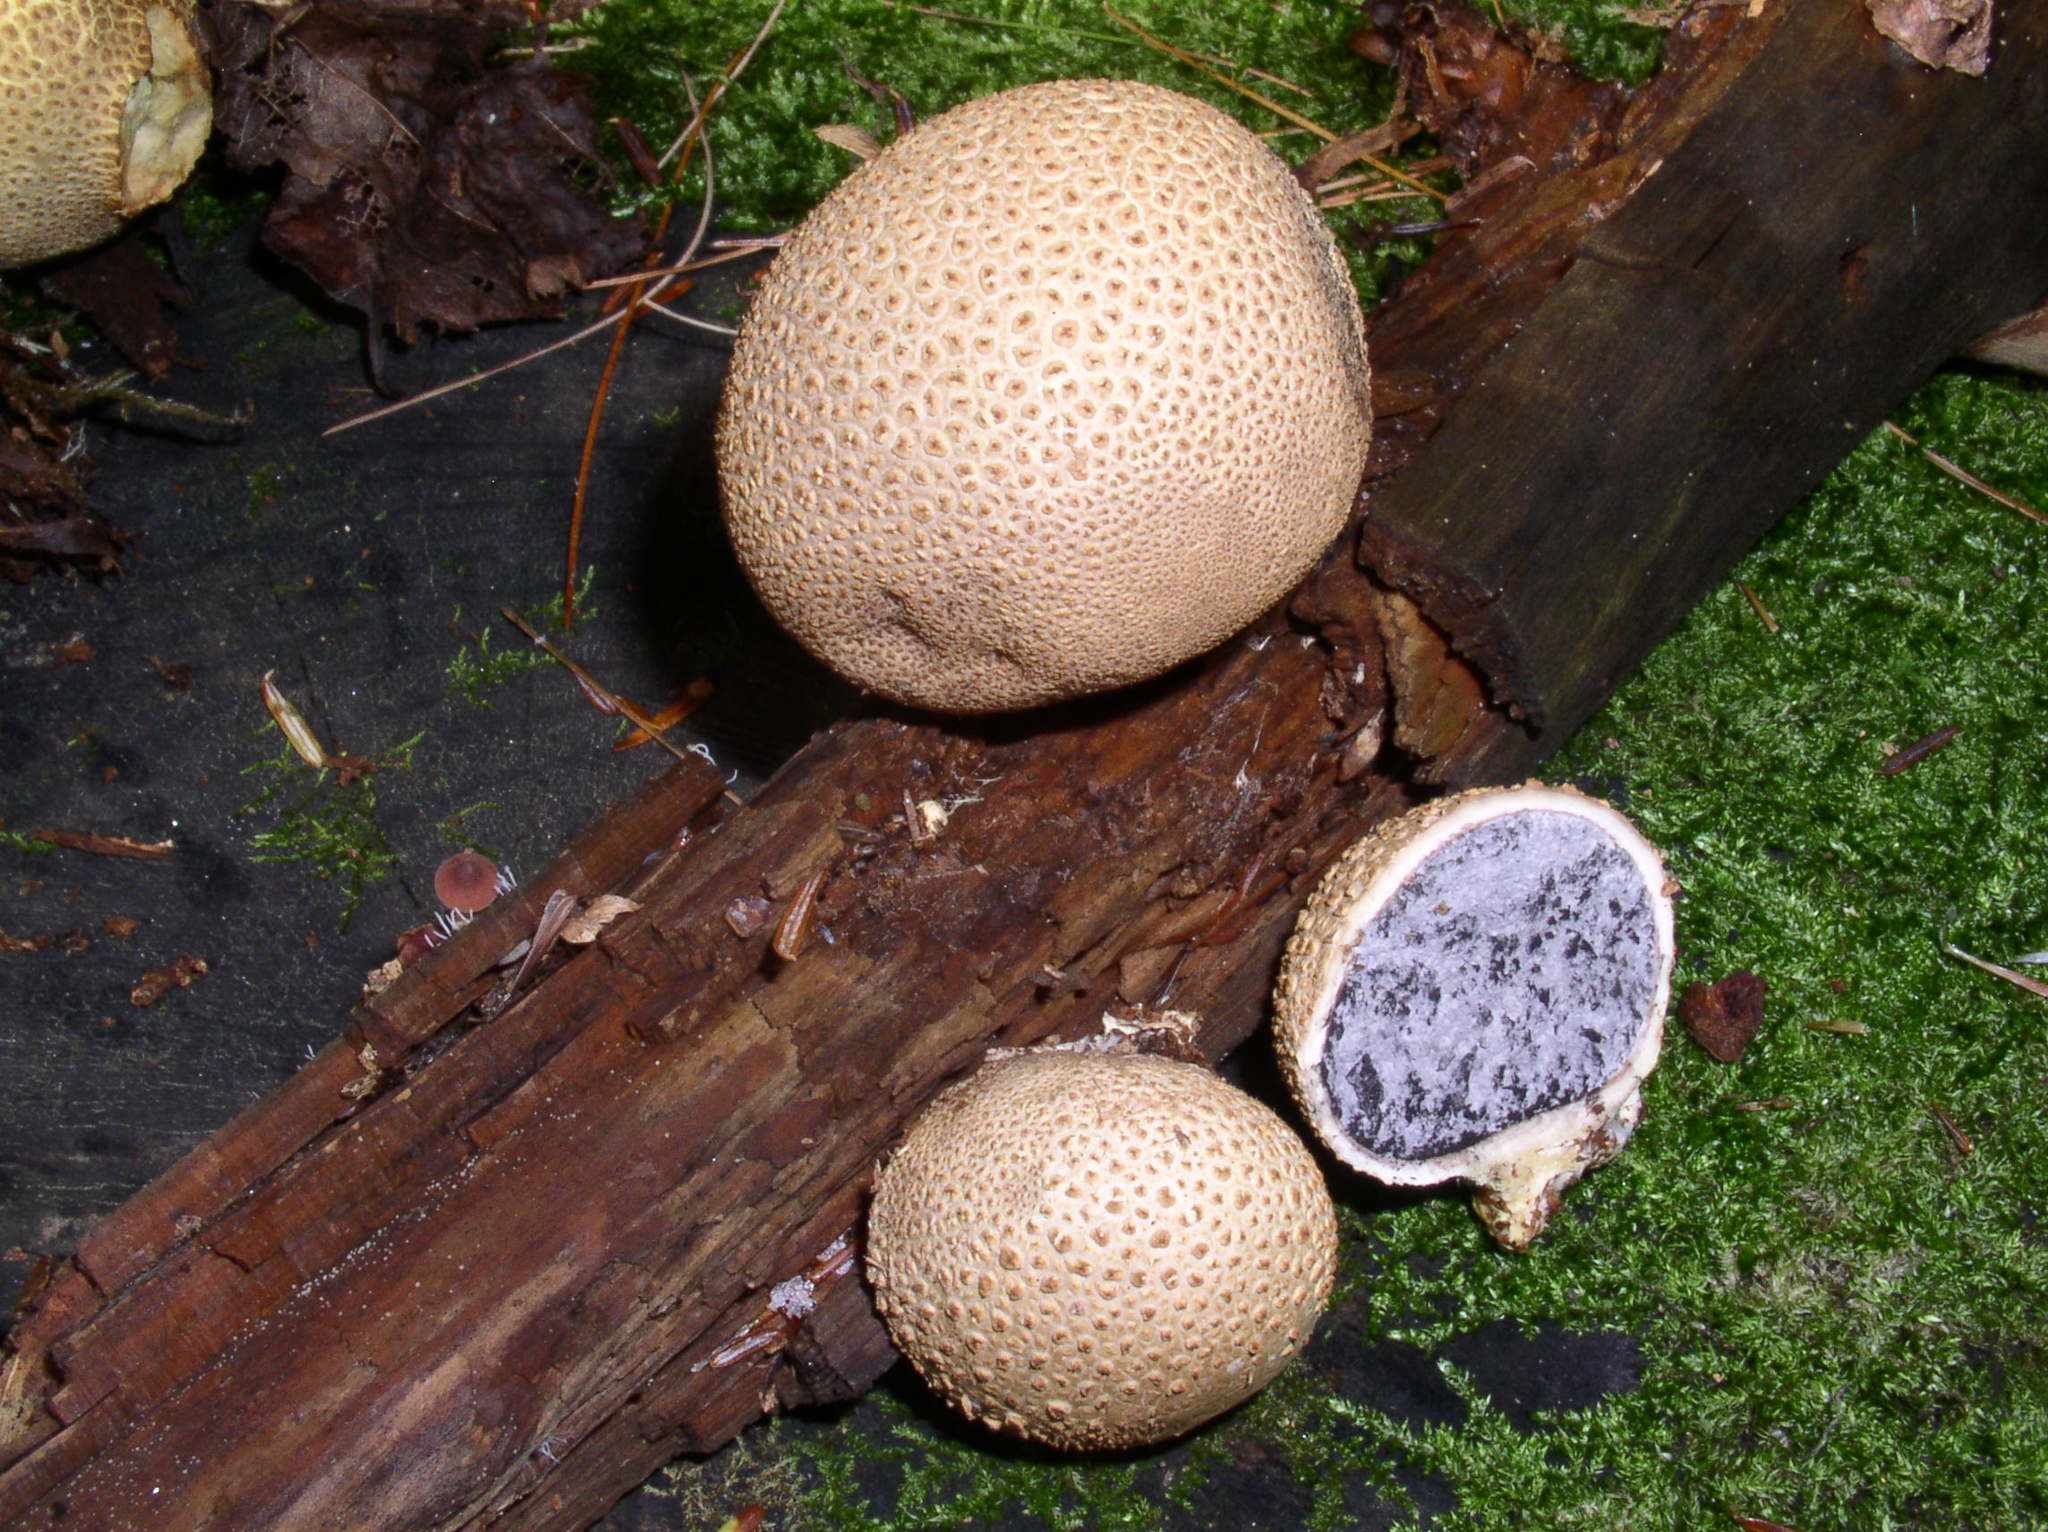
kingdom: Fungi
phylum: Basidiomycota
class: Agaricomycetes
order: Boletales
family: Sclerodermataceae
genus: Scleroderma
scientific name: Scleroderma areolatum
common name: Leopard earthball
